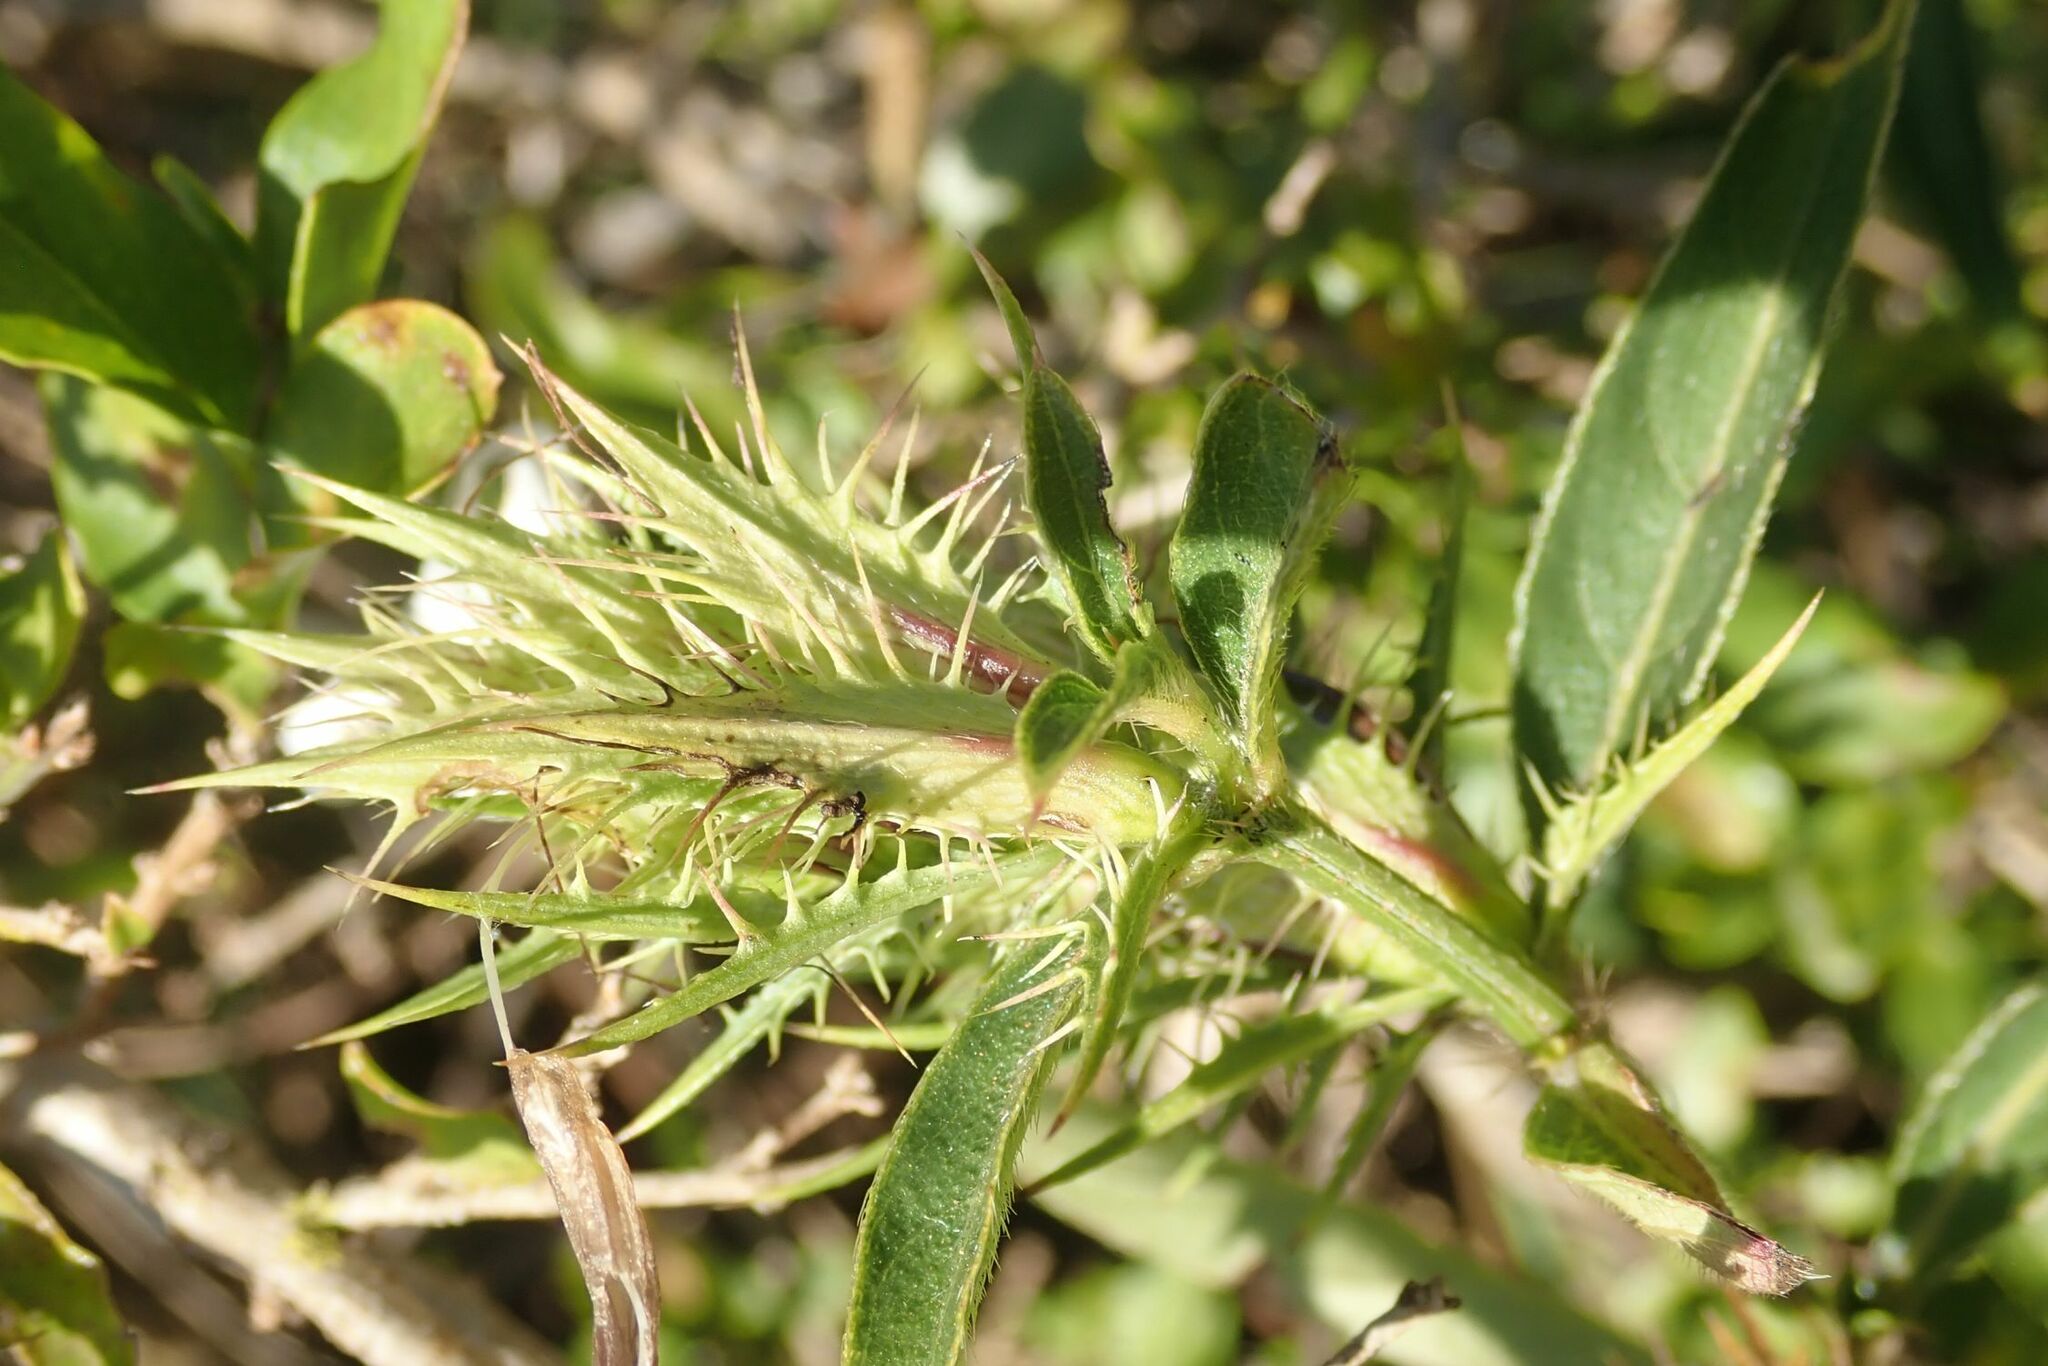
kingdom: Plantae
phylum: Tracheophyta
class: Magnoliopsida
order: Lamiales
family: Acanthaceae
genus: Barleria
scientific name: Barleria elegans
